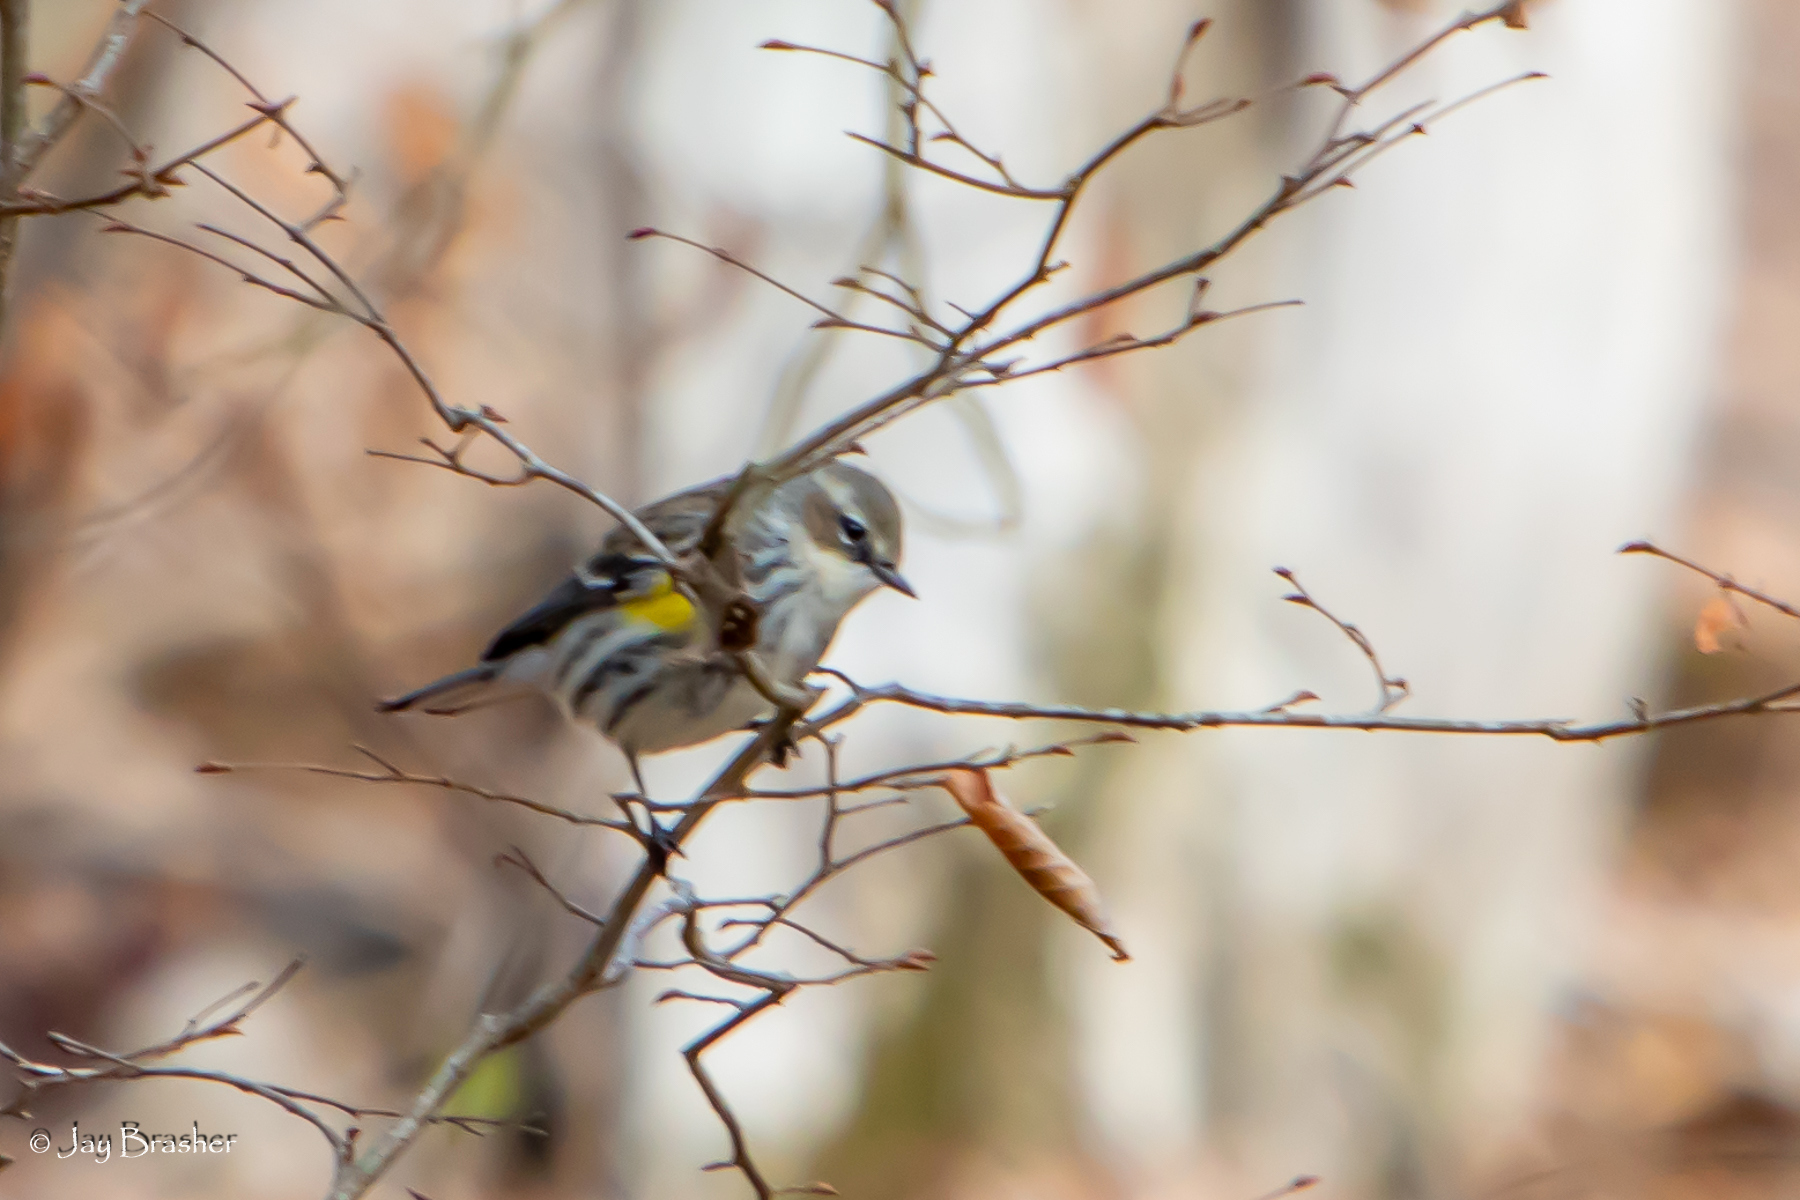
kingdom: Animalia
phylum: Chordata
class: Aves
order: Passeriformes
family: Parulidae
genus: Setophaga
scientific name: Setophaga coronata
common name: Myrtle warbler
